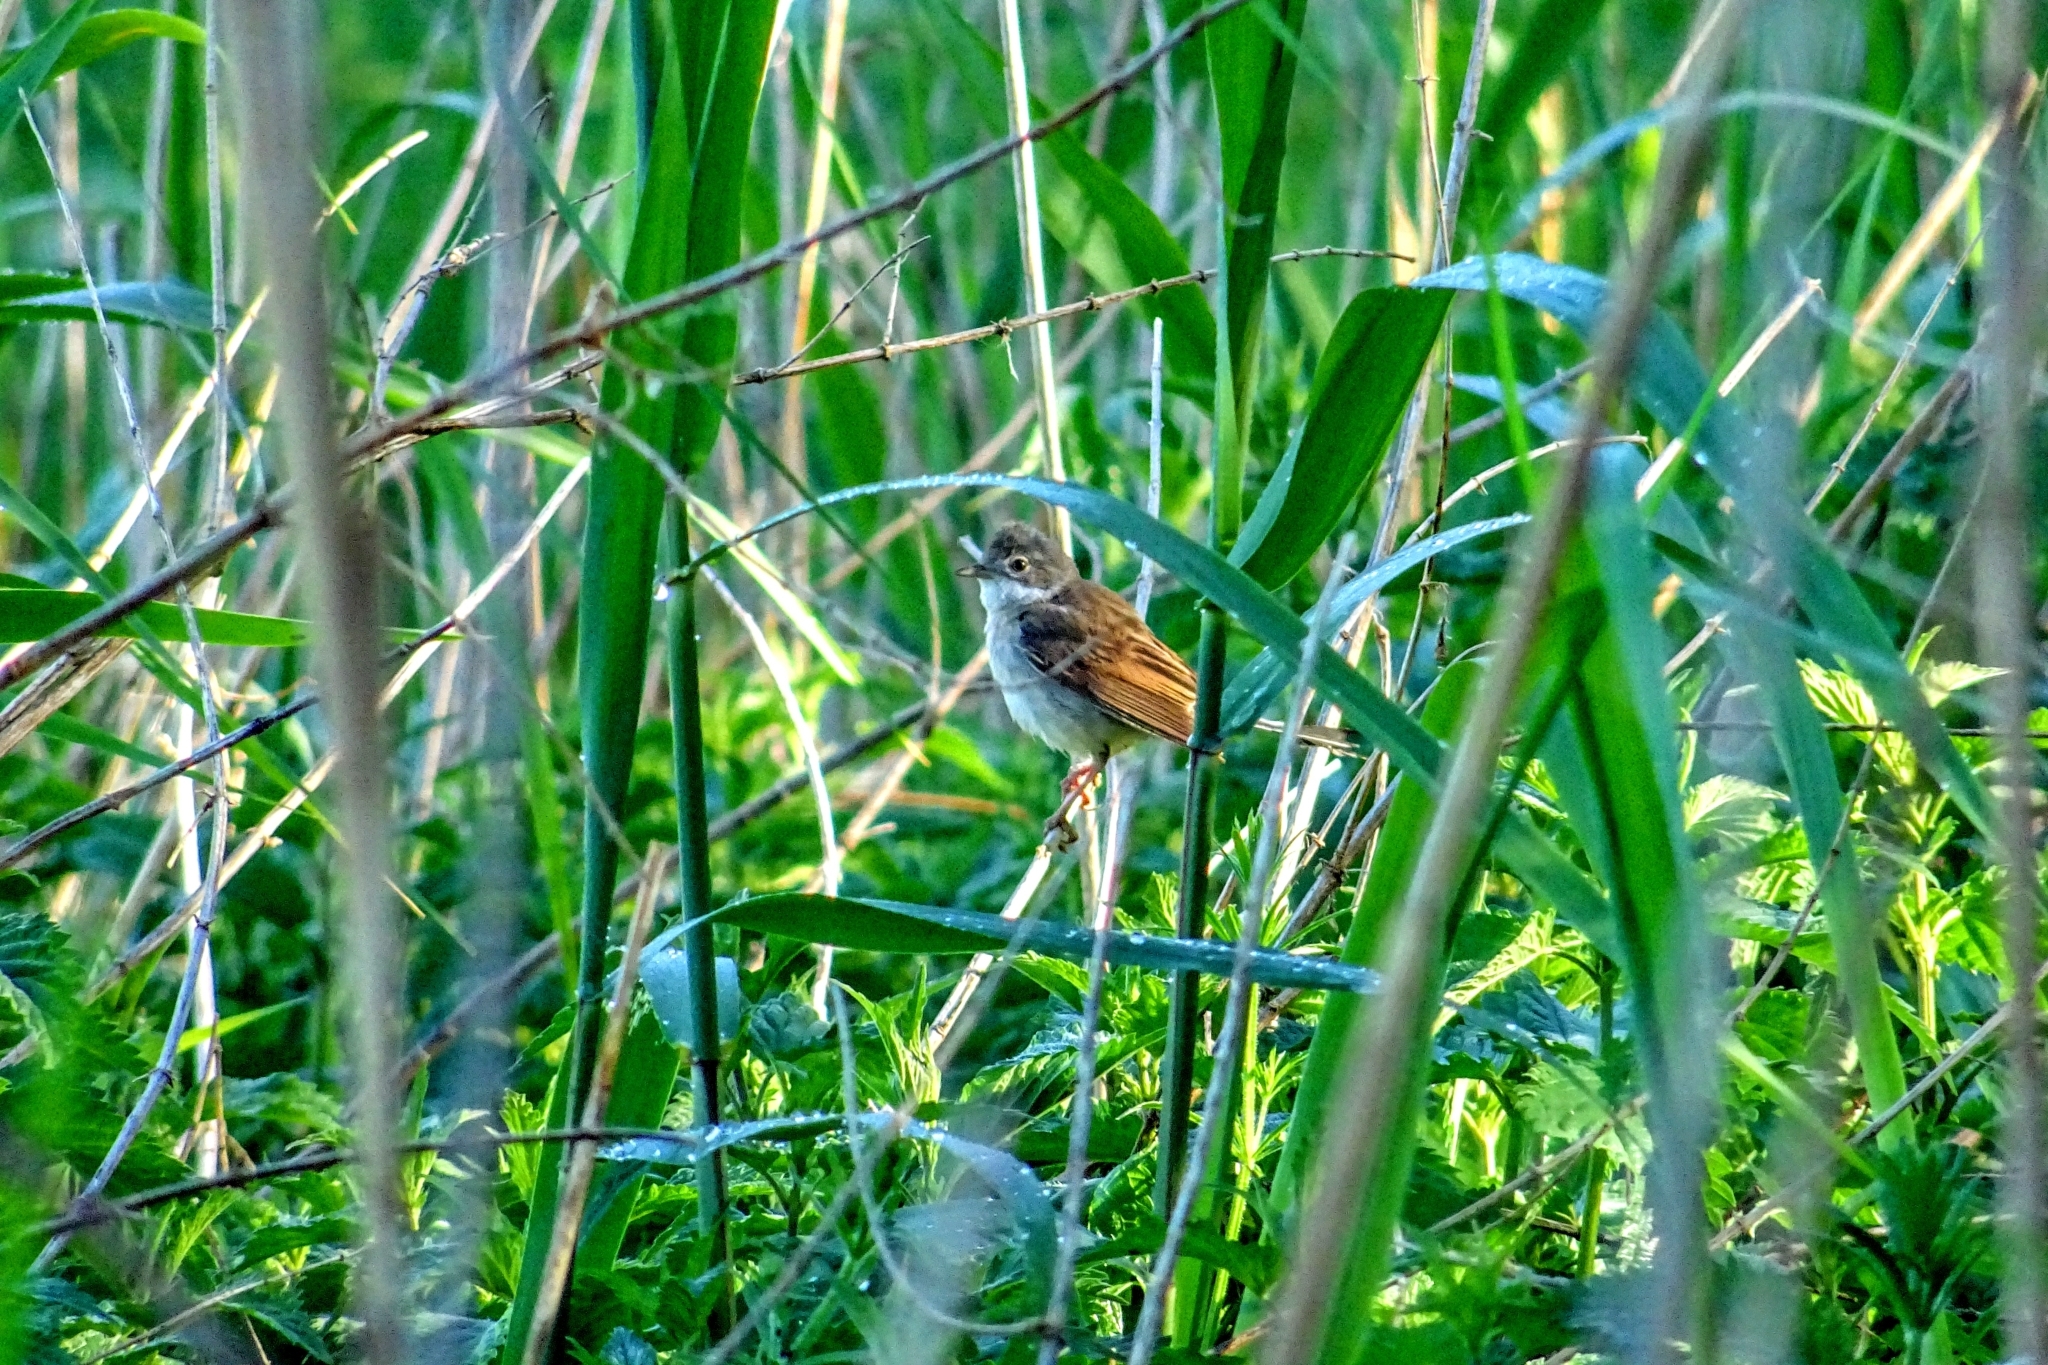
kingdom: Animalia
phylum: Chordata
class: Aves
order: Passeriformes
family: Sylviidae
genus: Sylvia
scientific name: Sylvia communis
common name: Common whitethroat
